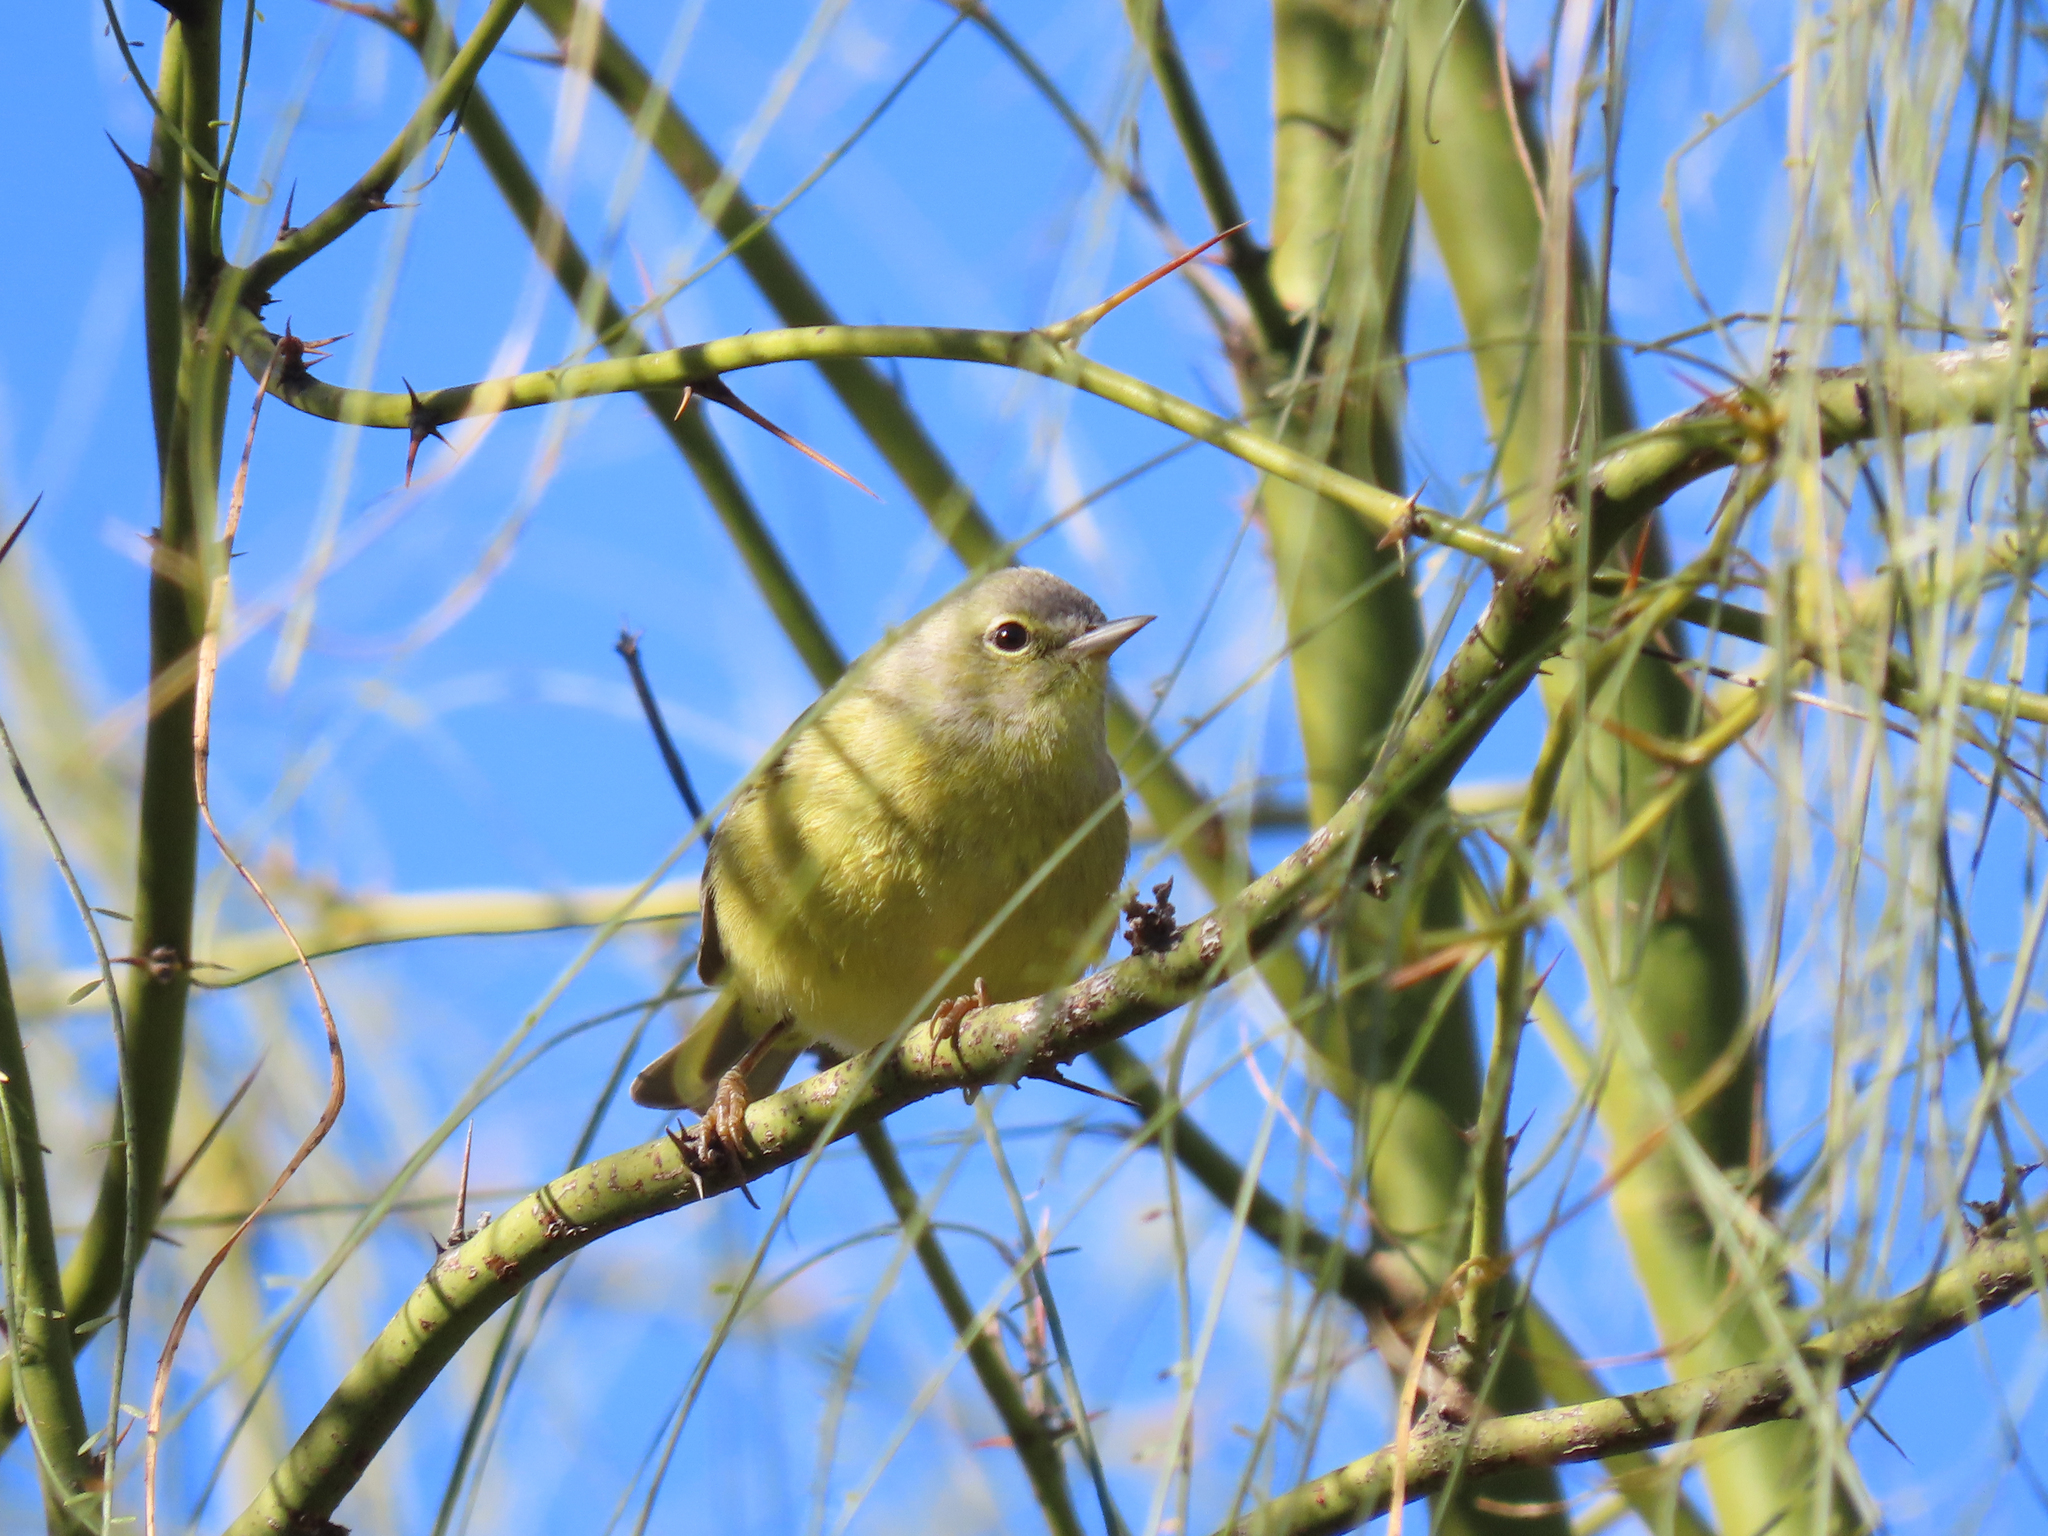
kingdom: Animalia
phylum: Chordata
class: Aves
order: Passeriformes
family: Parulidae
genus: Leiothlypis
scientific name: Leiothlypis celata
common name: Orange-crowned warbler
